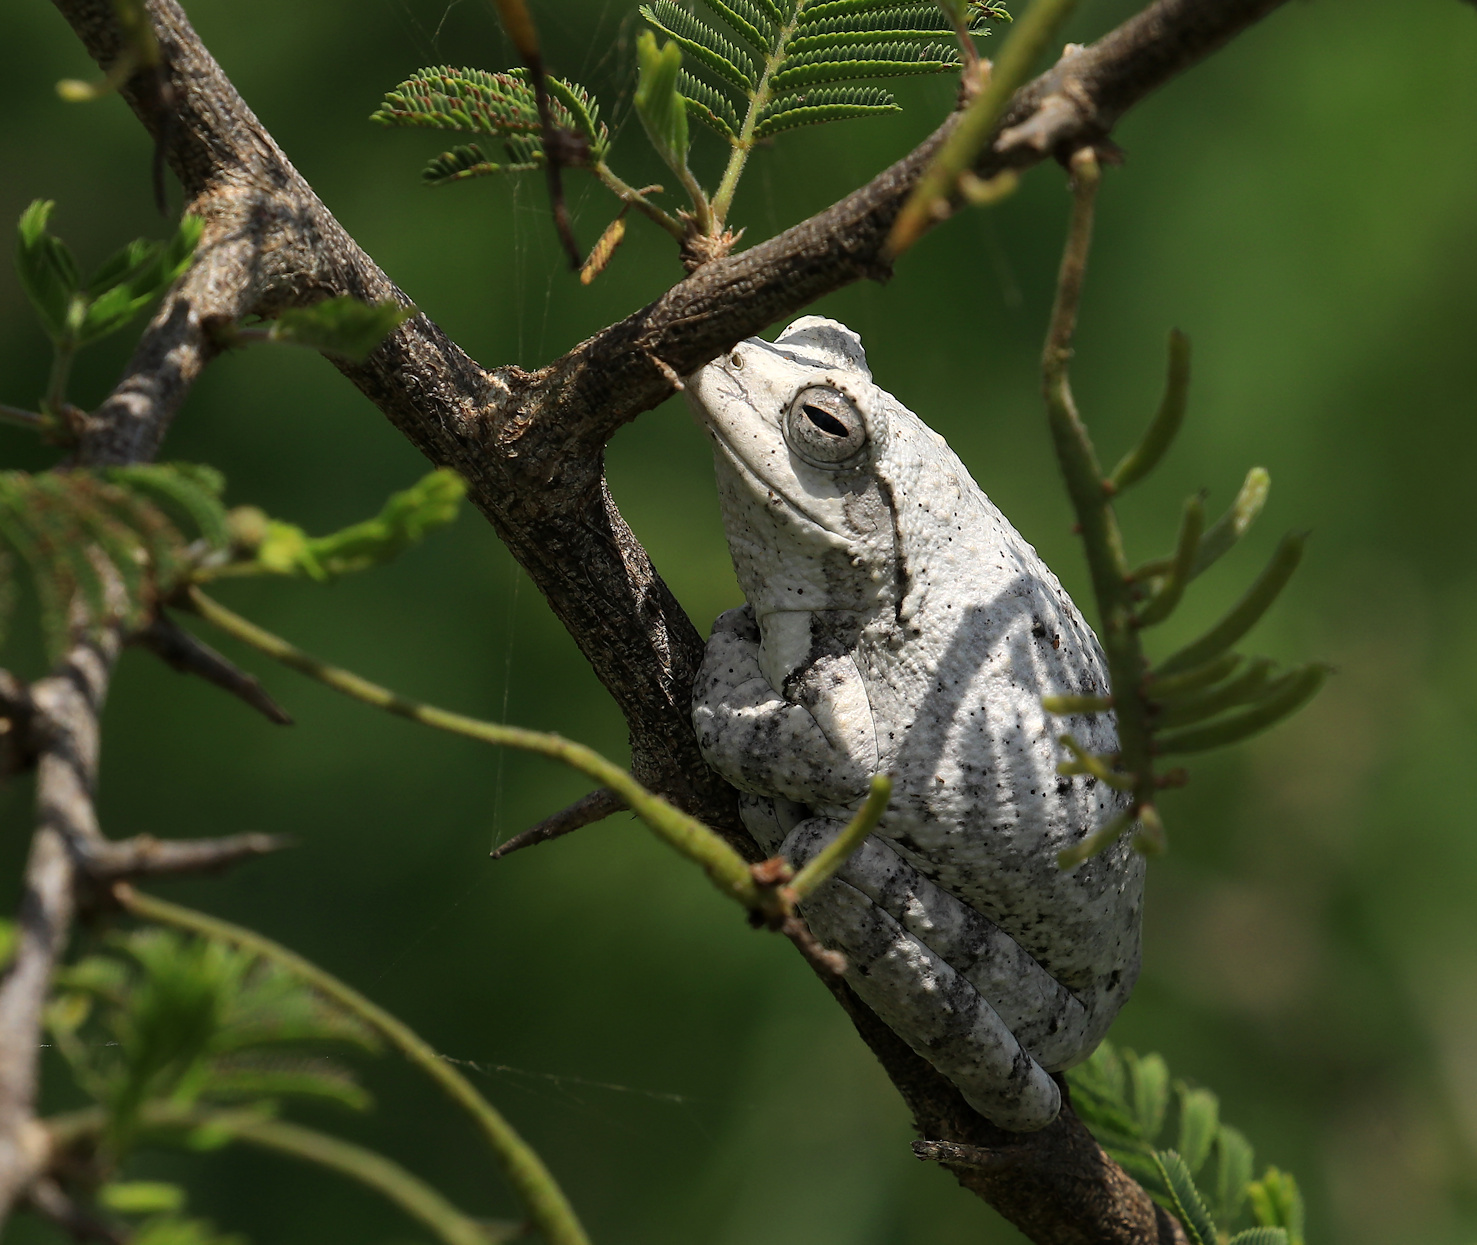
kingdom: Animalia
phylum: Chordata
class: Amphibia
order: Anura
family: Rhacophoridae
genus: Chiromantis
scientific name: Chiromantis xerampelina
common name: African gray treefrog
